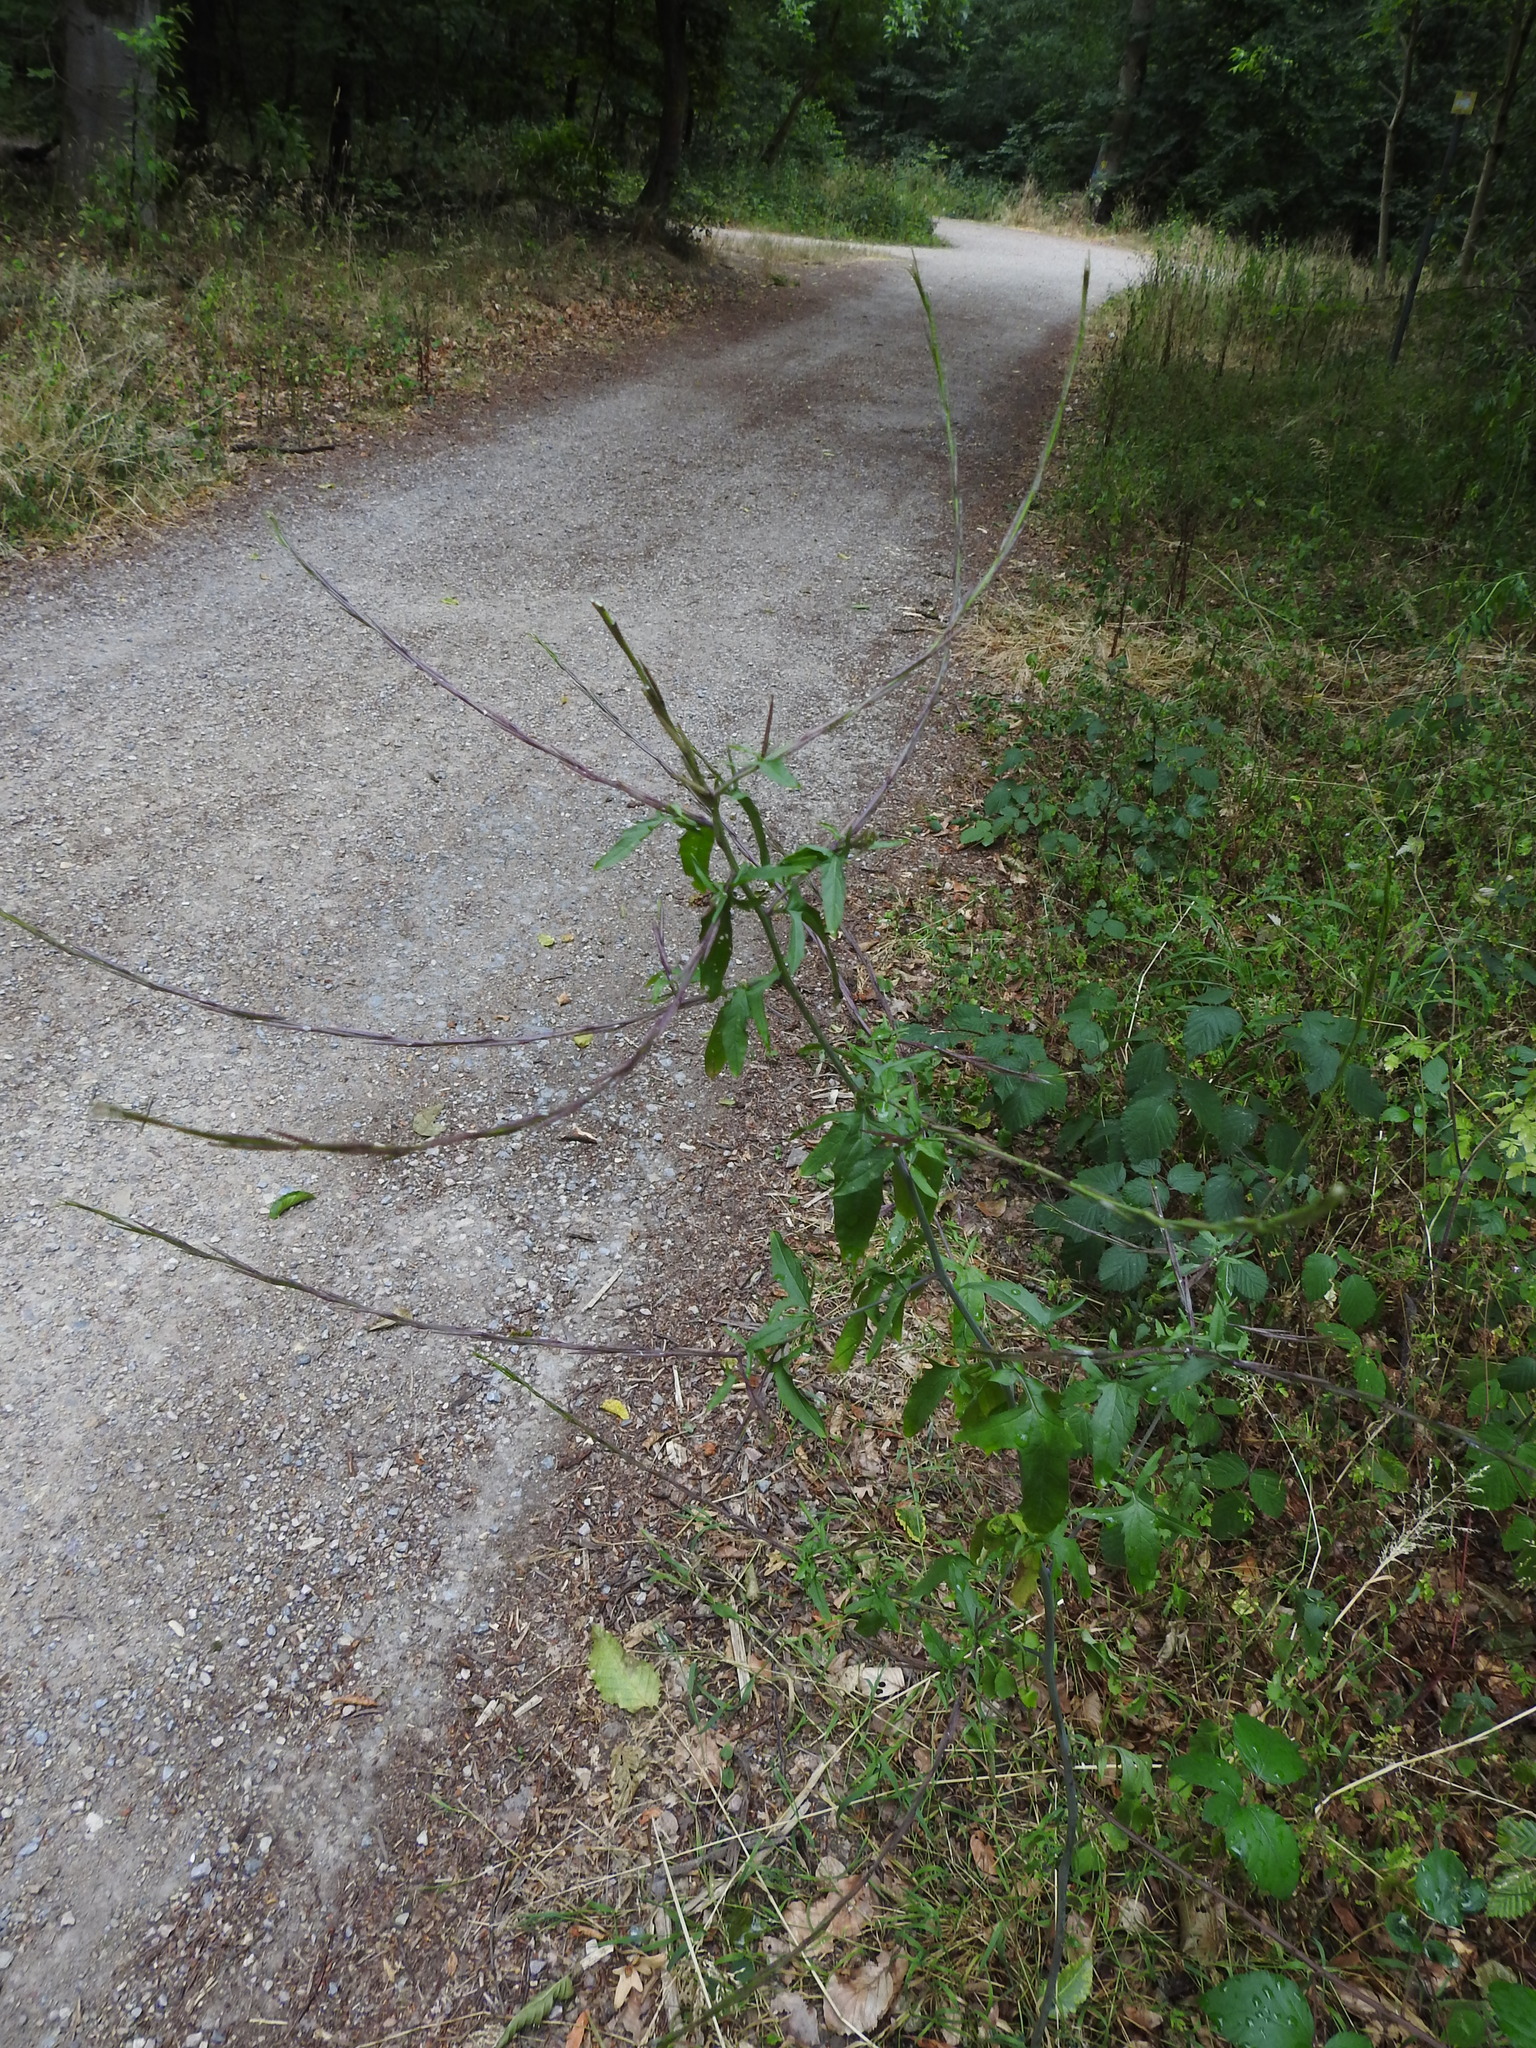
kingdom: Plantae
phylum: Tracheophyta
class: Magnoliopsida
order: Brassicales
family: Brassicaceae
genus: Sisymbrium
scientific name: Sisymbrium officinale
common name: Hedge mustard
